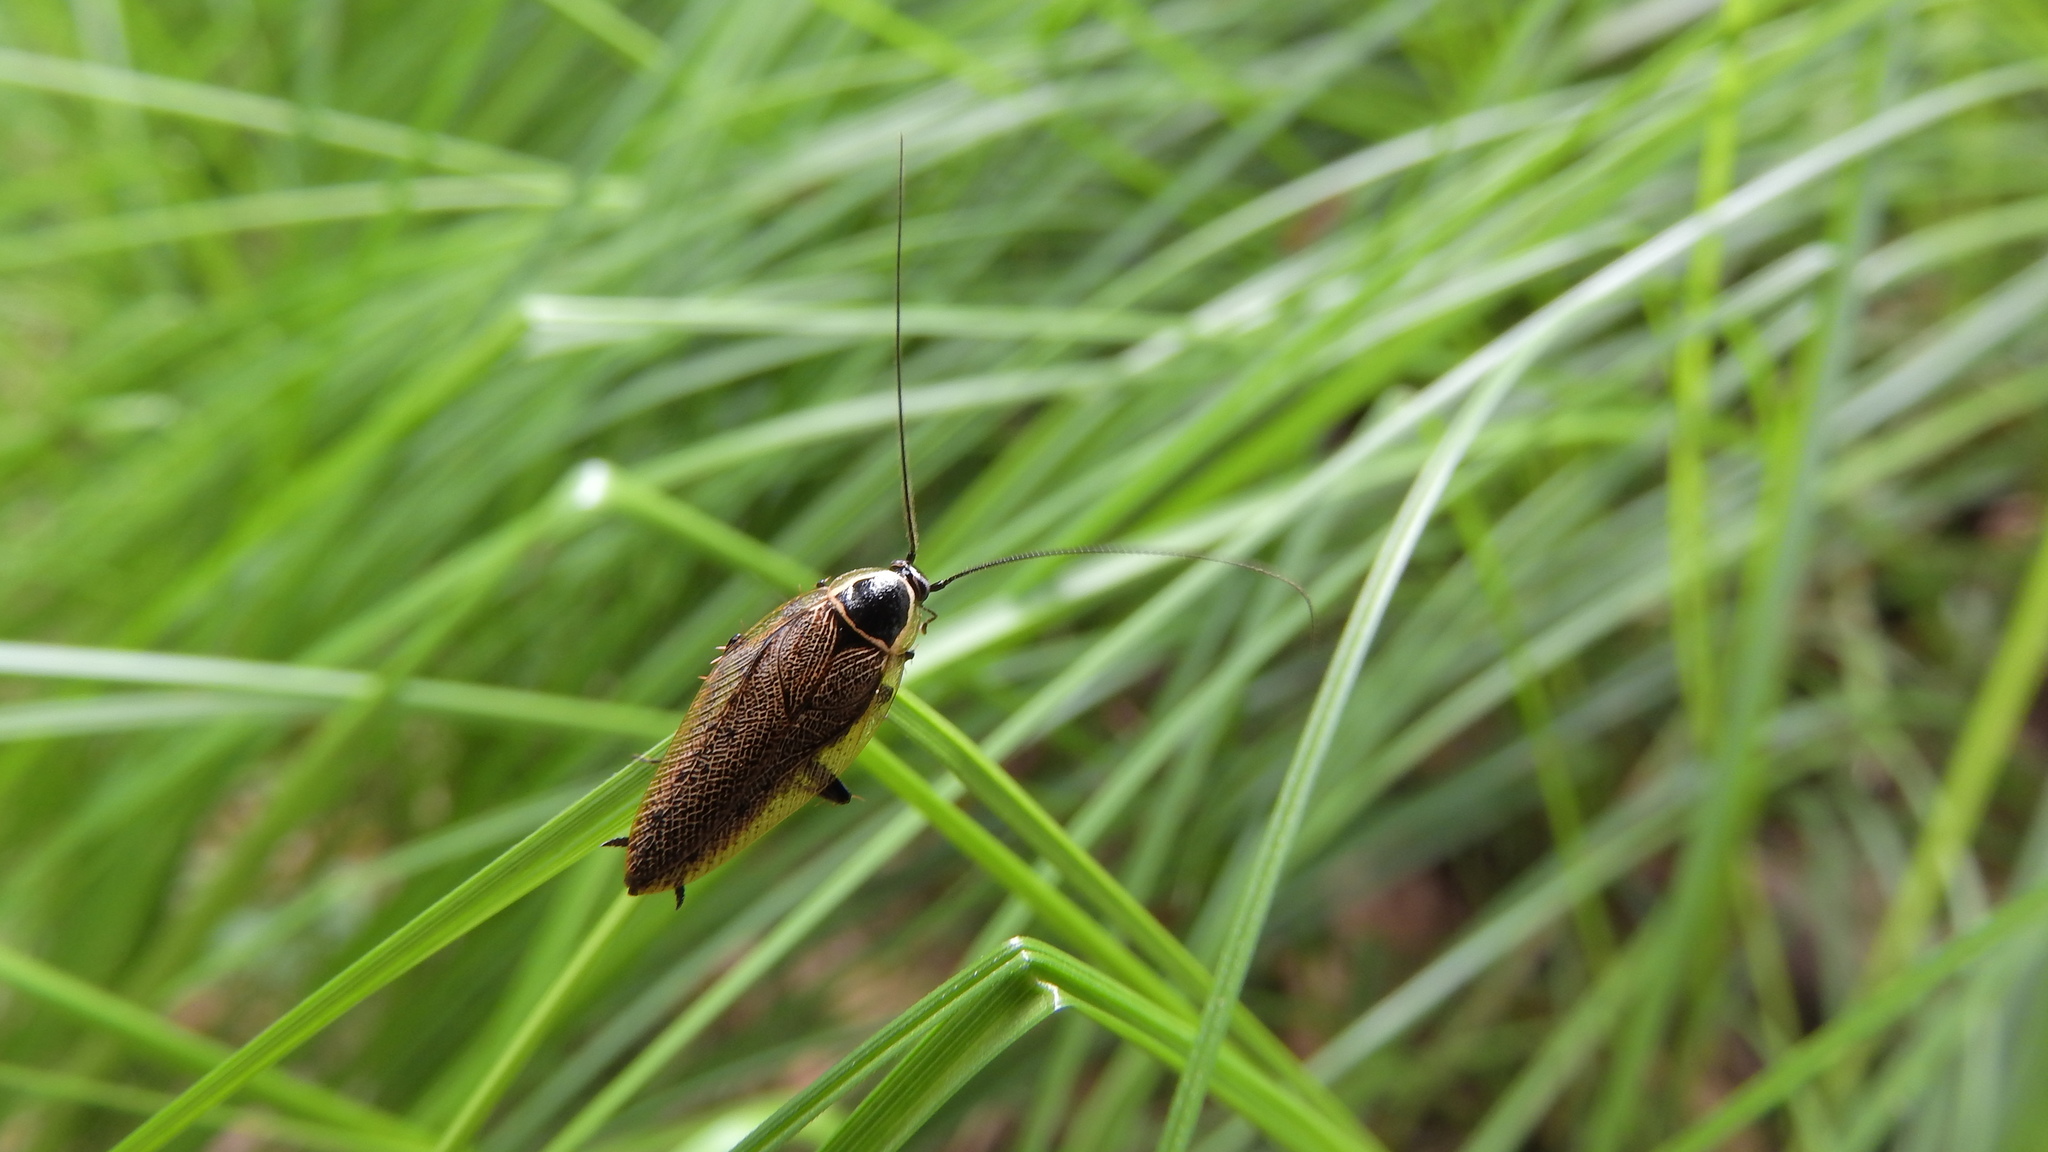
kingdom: Animalia
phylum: Arthropoda
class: Insecta
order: Blattodea
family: Ectobiidae
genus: Ectobius
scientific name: Ectobius sylvestris
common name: Forest cockroach
